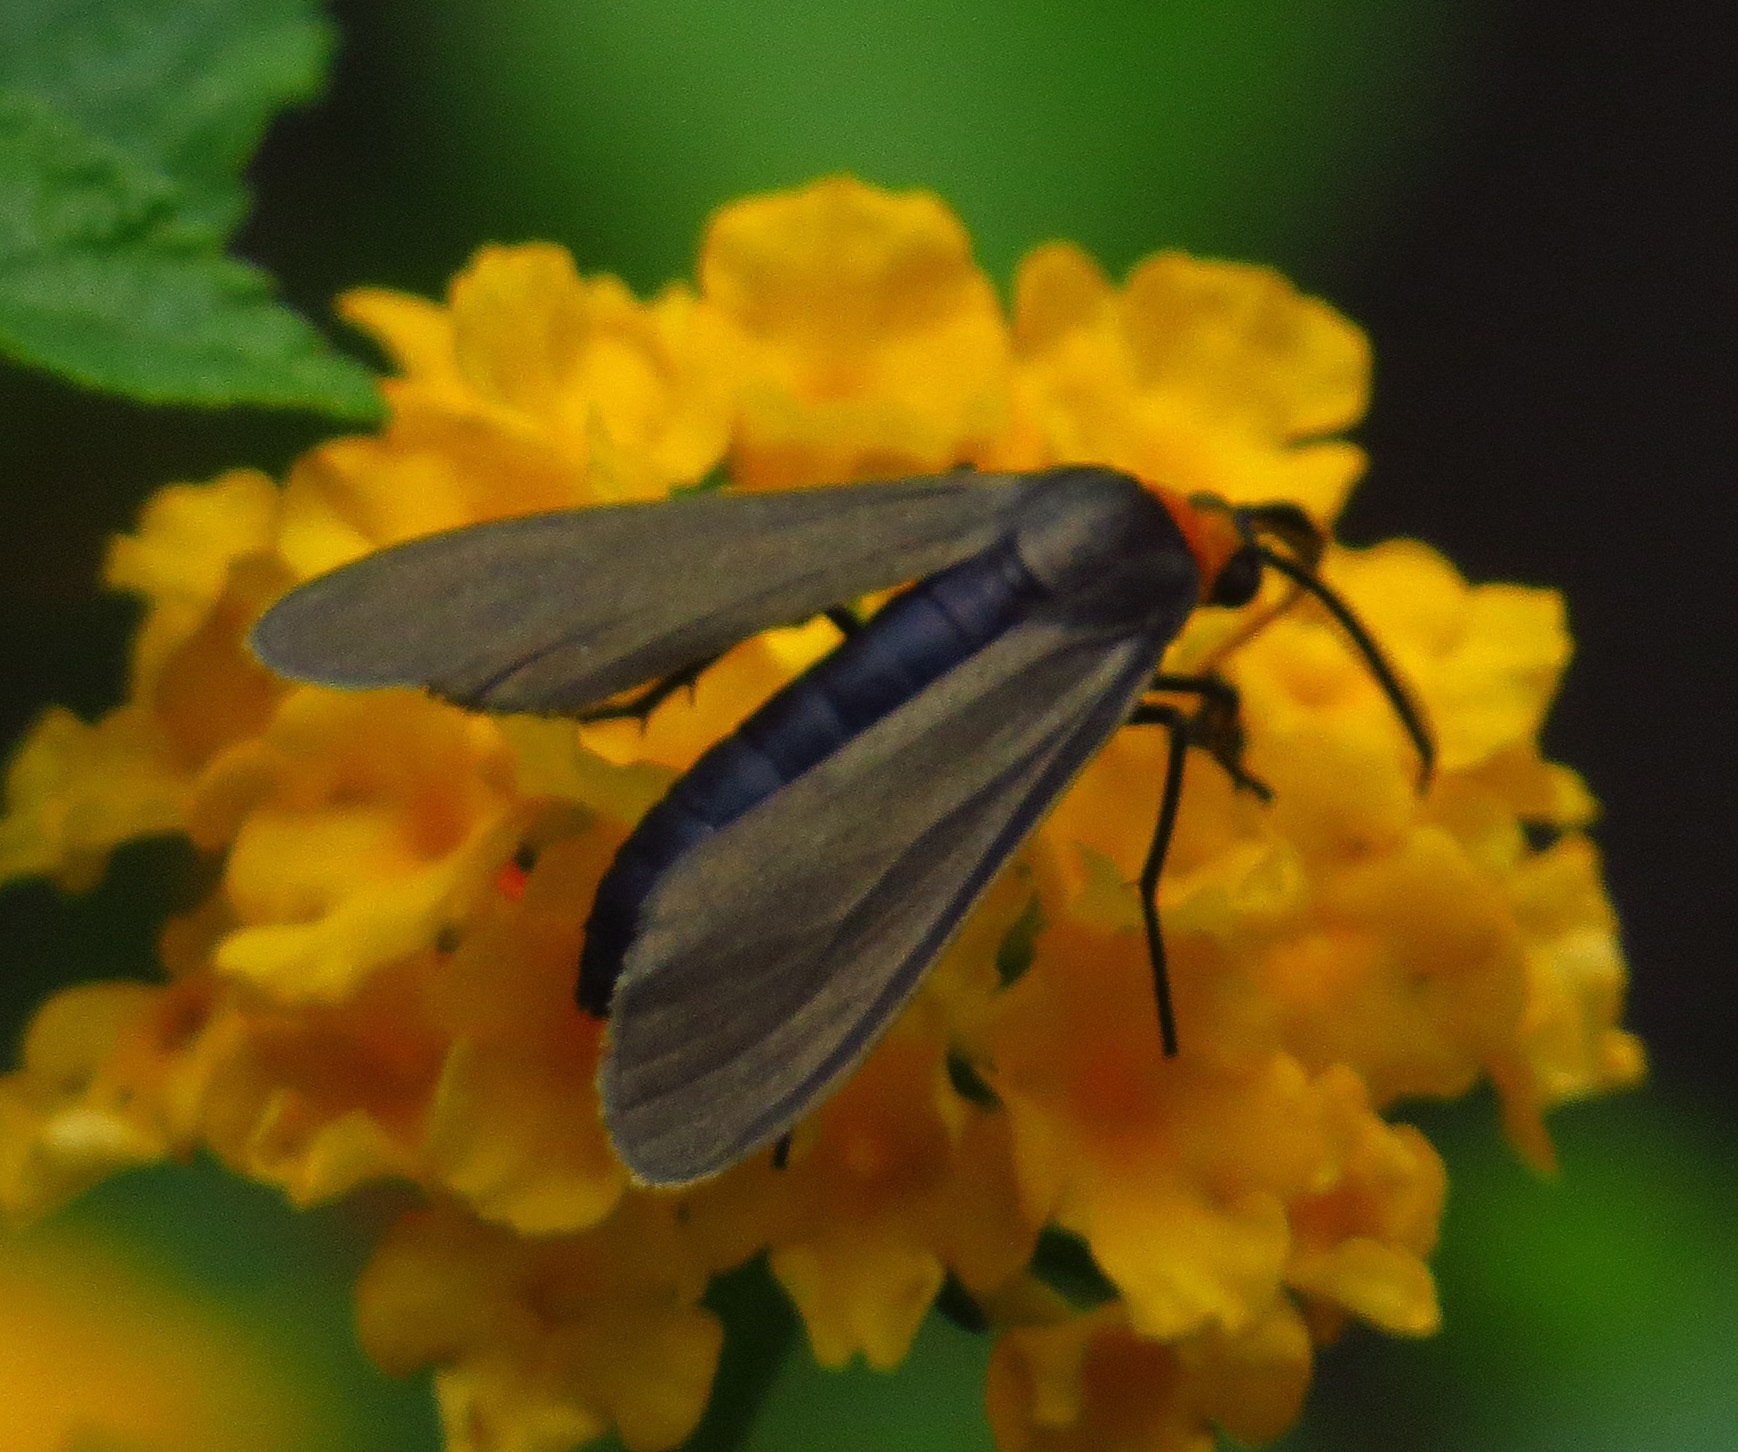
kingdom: Animalia
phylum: Arthropoda
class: Insecta
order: Lepidoptera
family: Erebidae
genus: Cisseps
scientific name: Cisseps fulvicollis
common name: Yellow-collared scape moth
